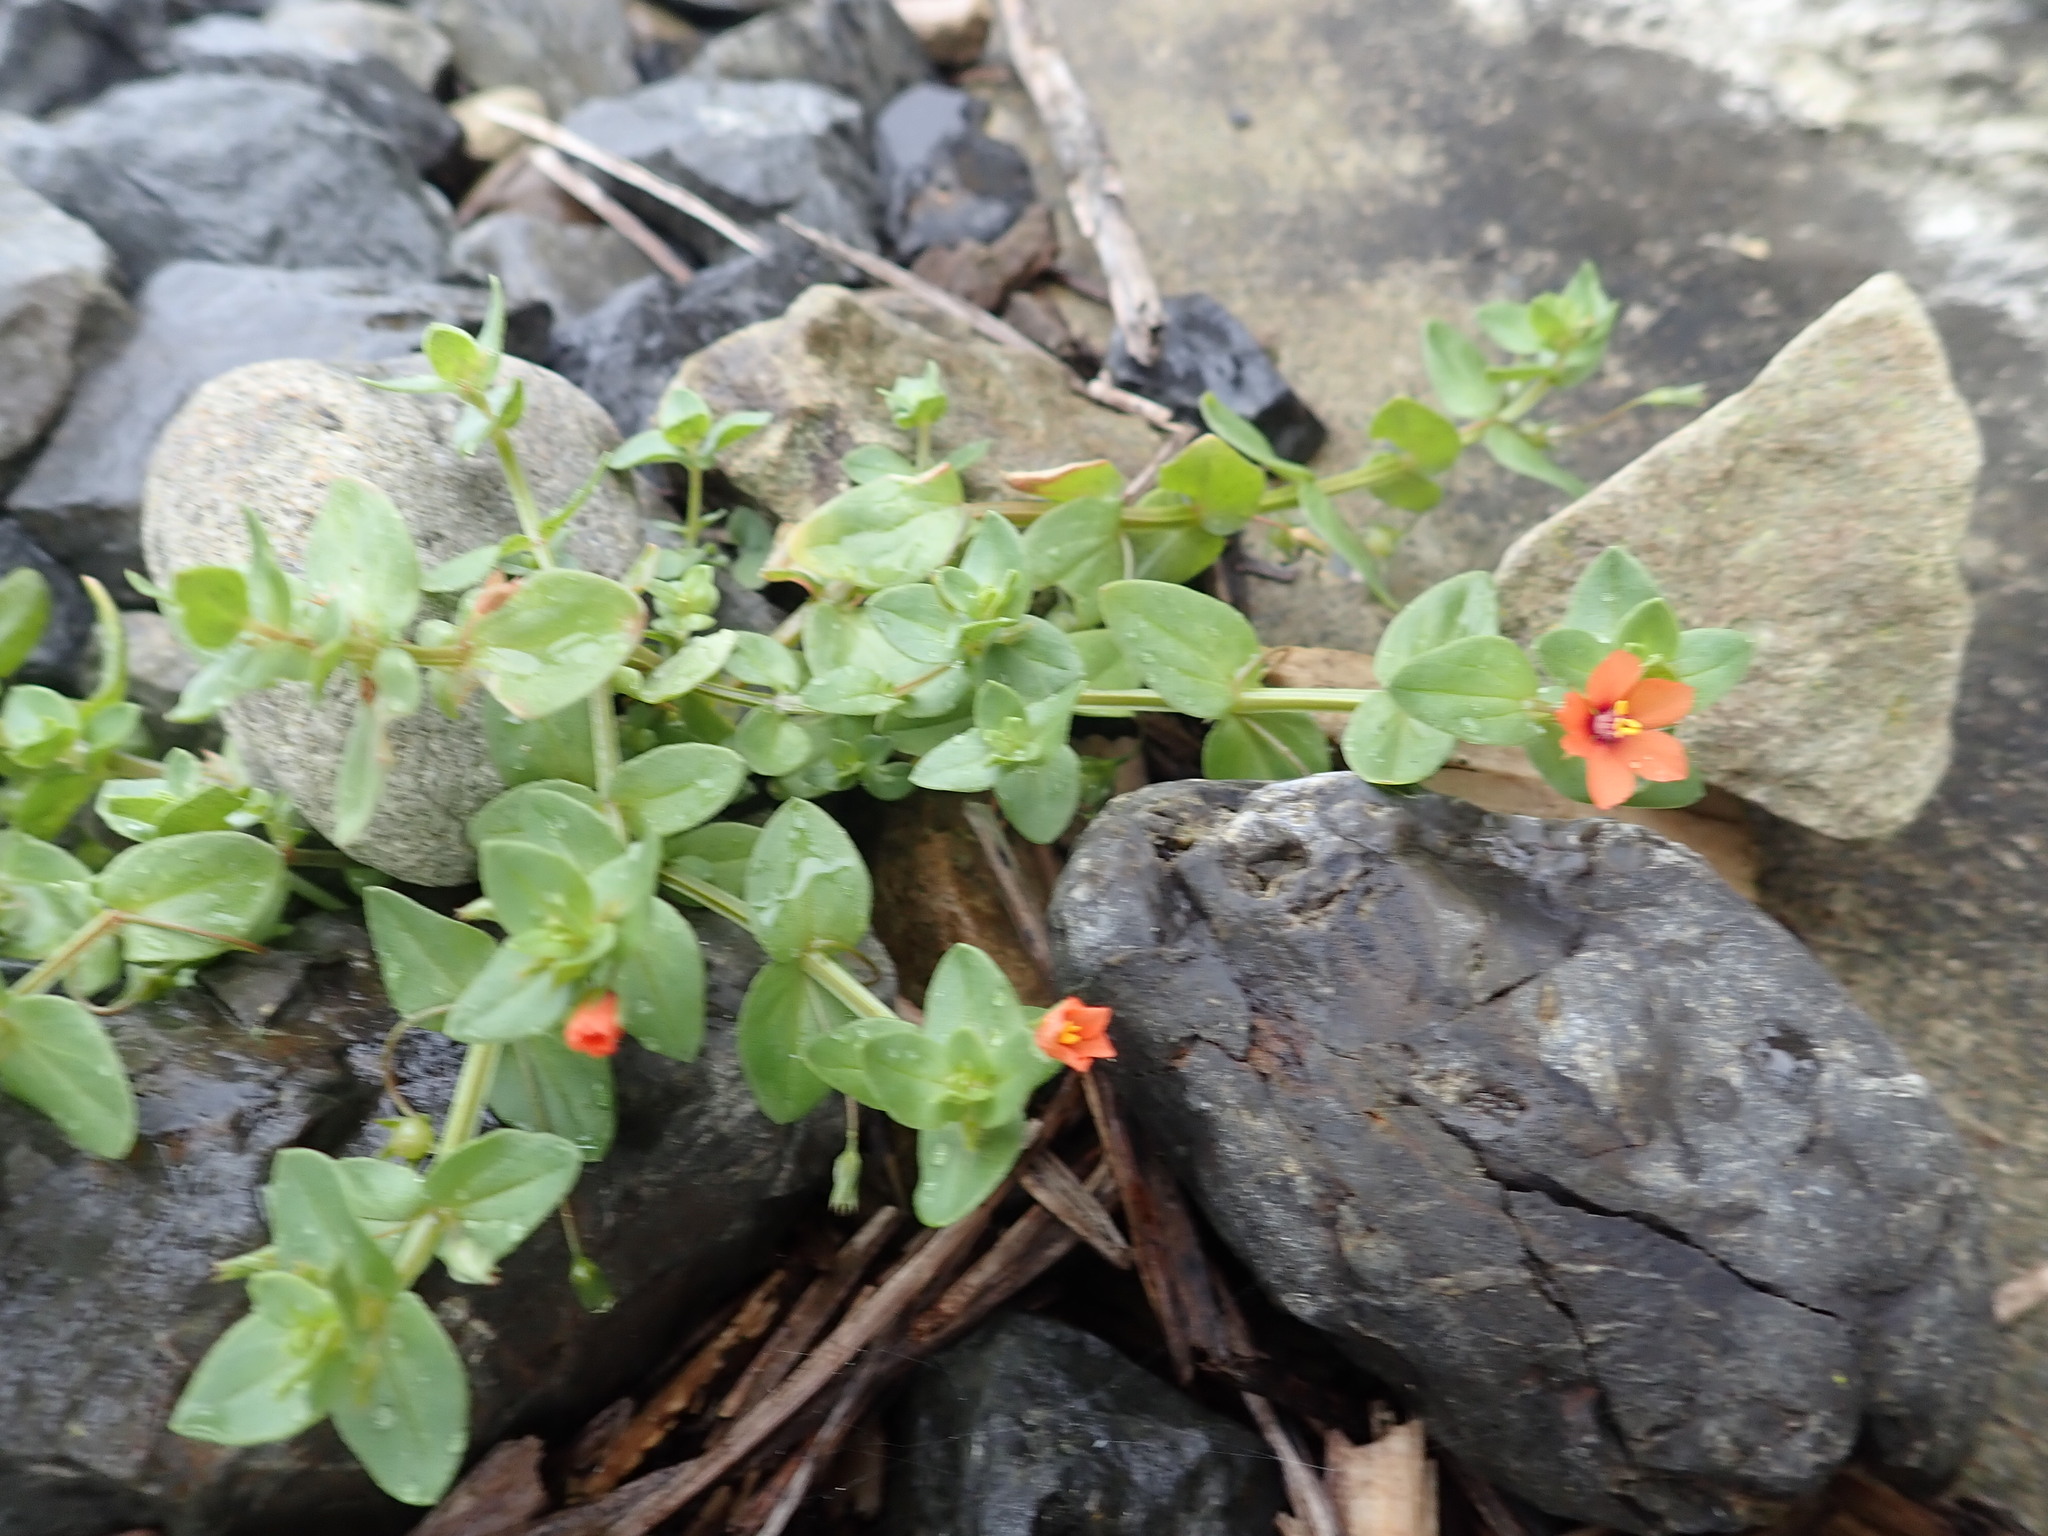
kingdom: Plantae
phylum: Tracheophyta
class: Magnoliopsida
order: Ericales
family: Primulaceae
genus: Lysimachia
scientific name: Lysimachia arvensis
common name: Scarlet pimpernel
